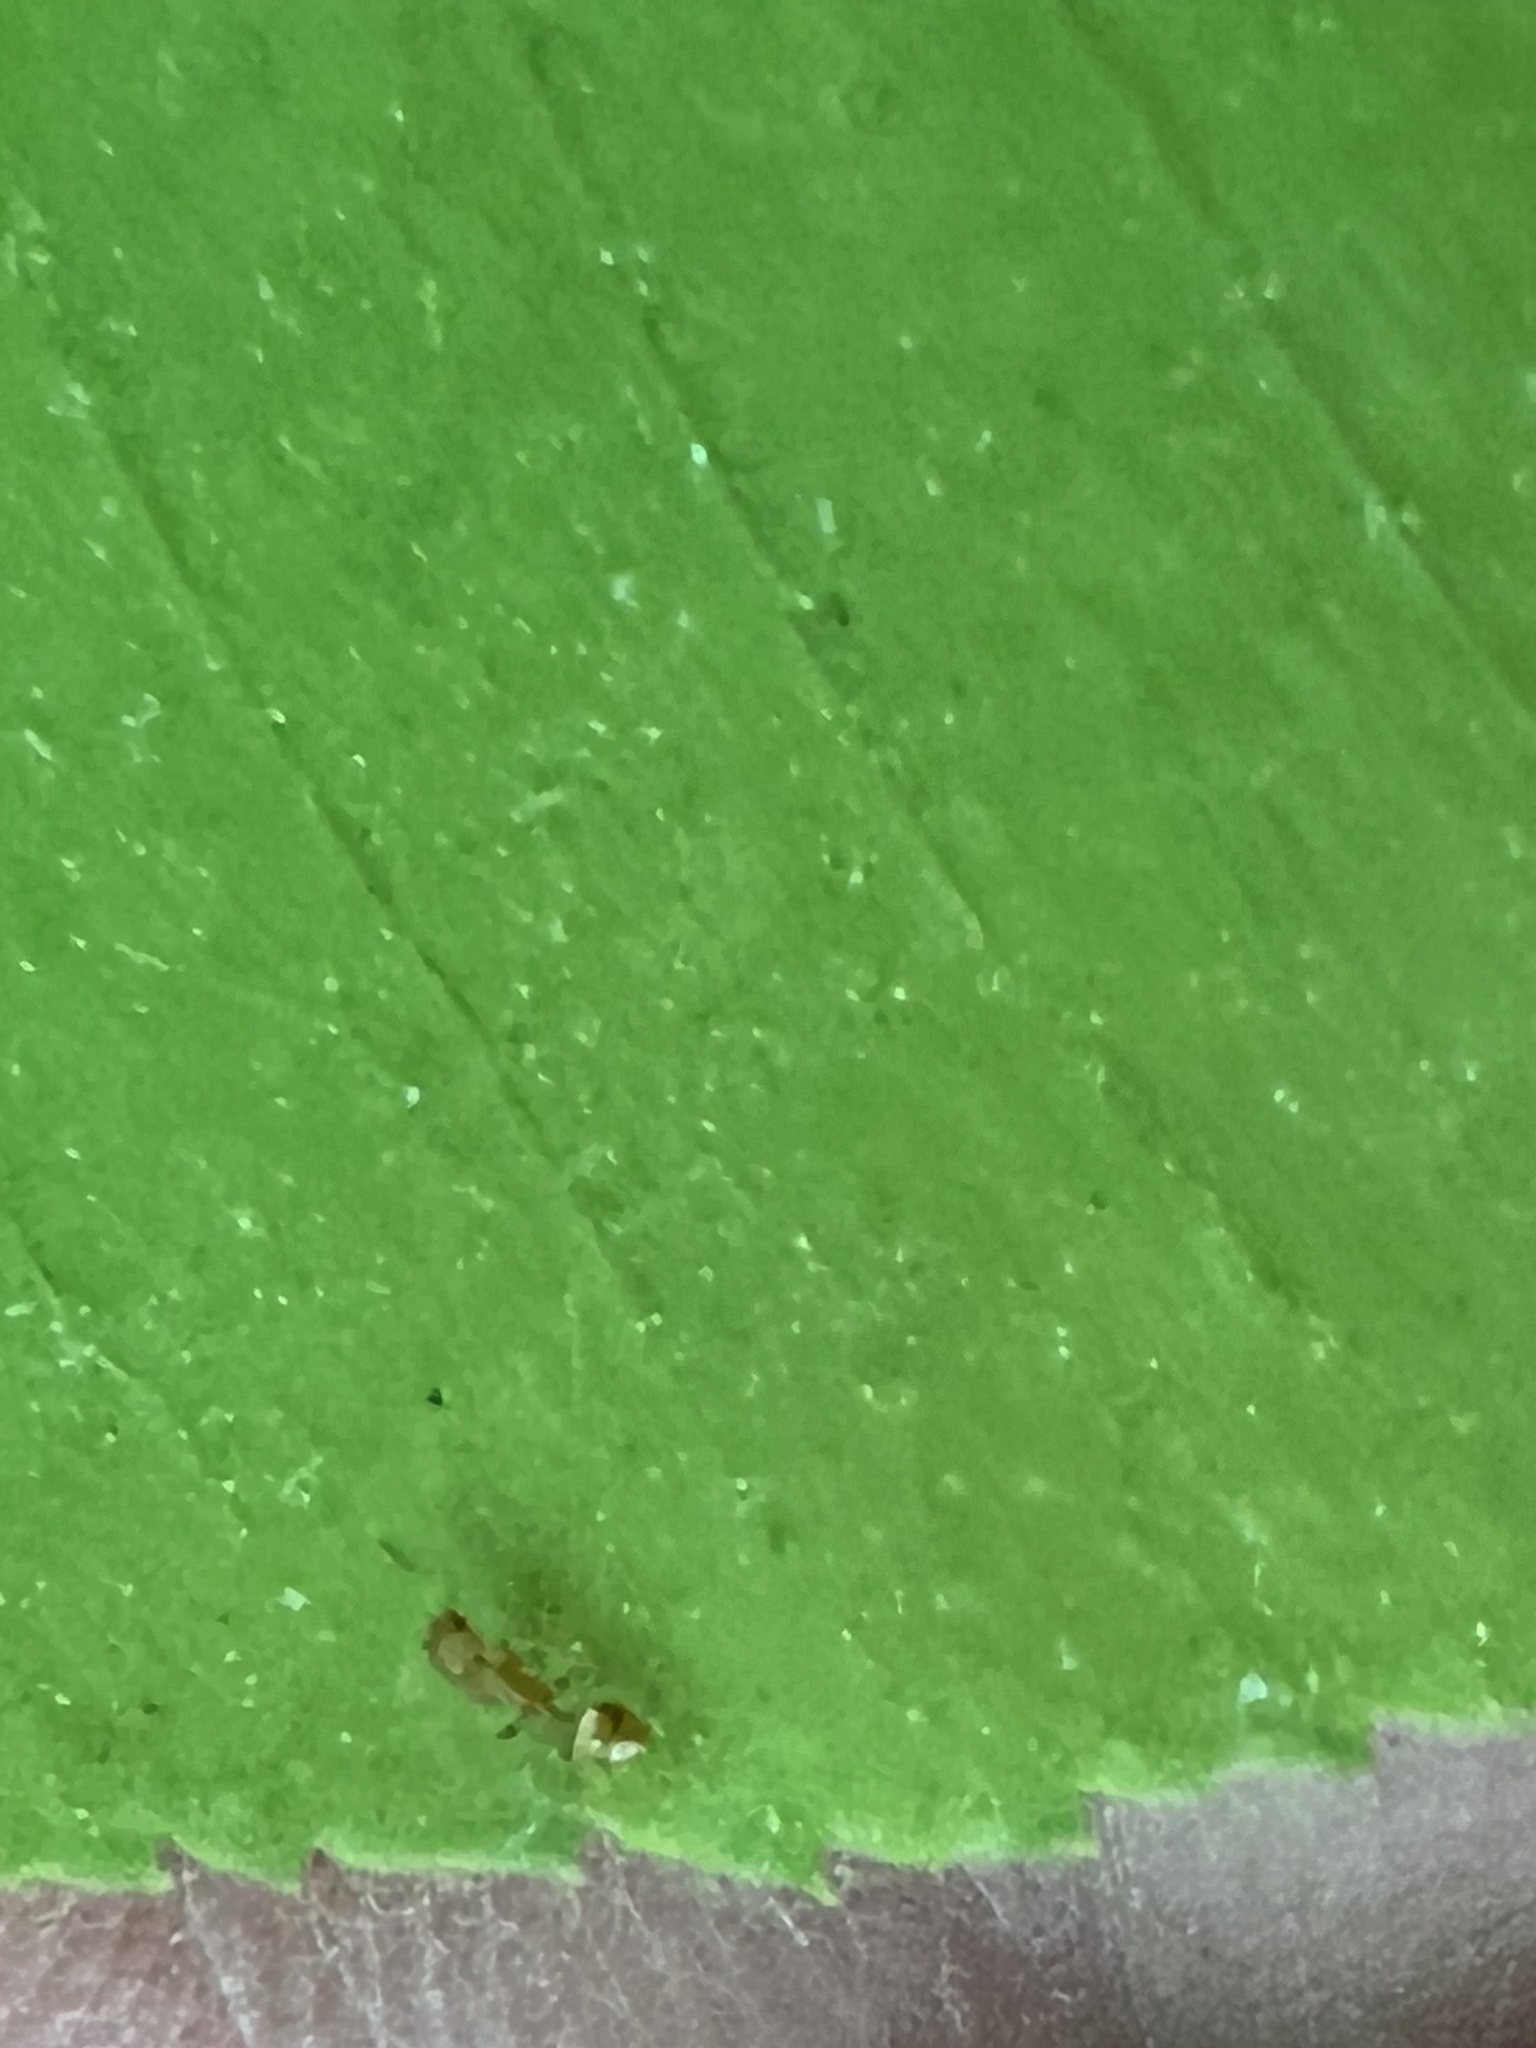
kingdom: Animalia
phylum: Arthropoda
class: Insecta
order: Hymenoptera
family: Formicidae
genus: Temnothorax
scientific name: Temnothorax curvispinosus
